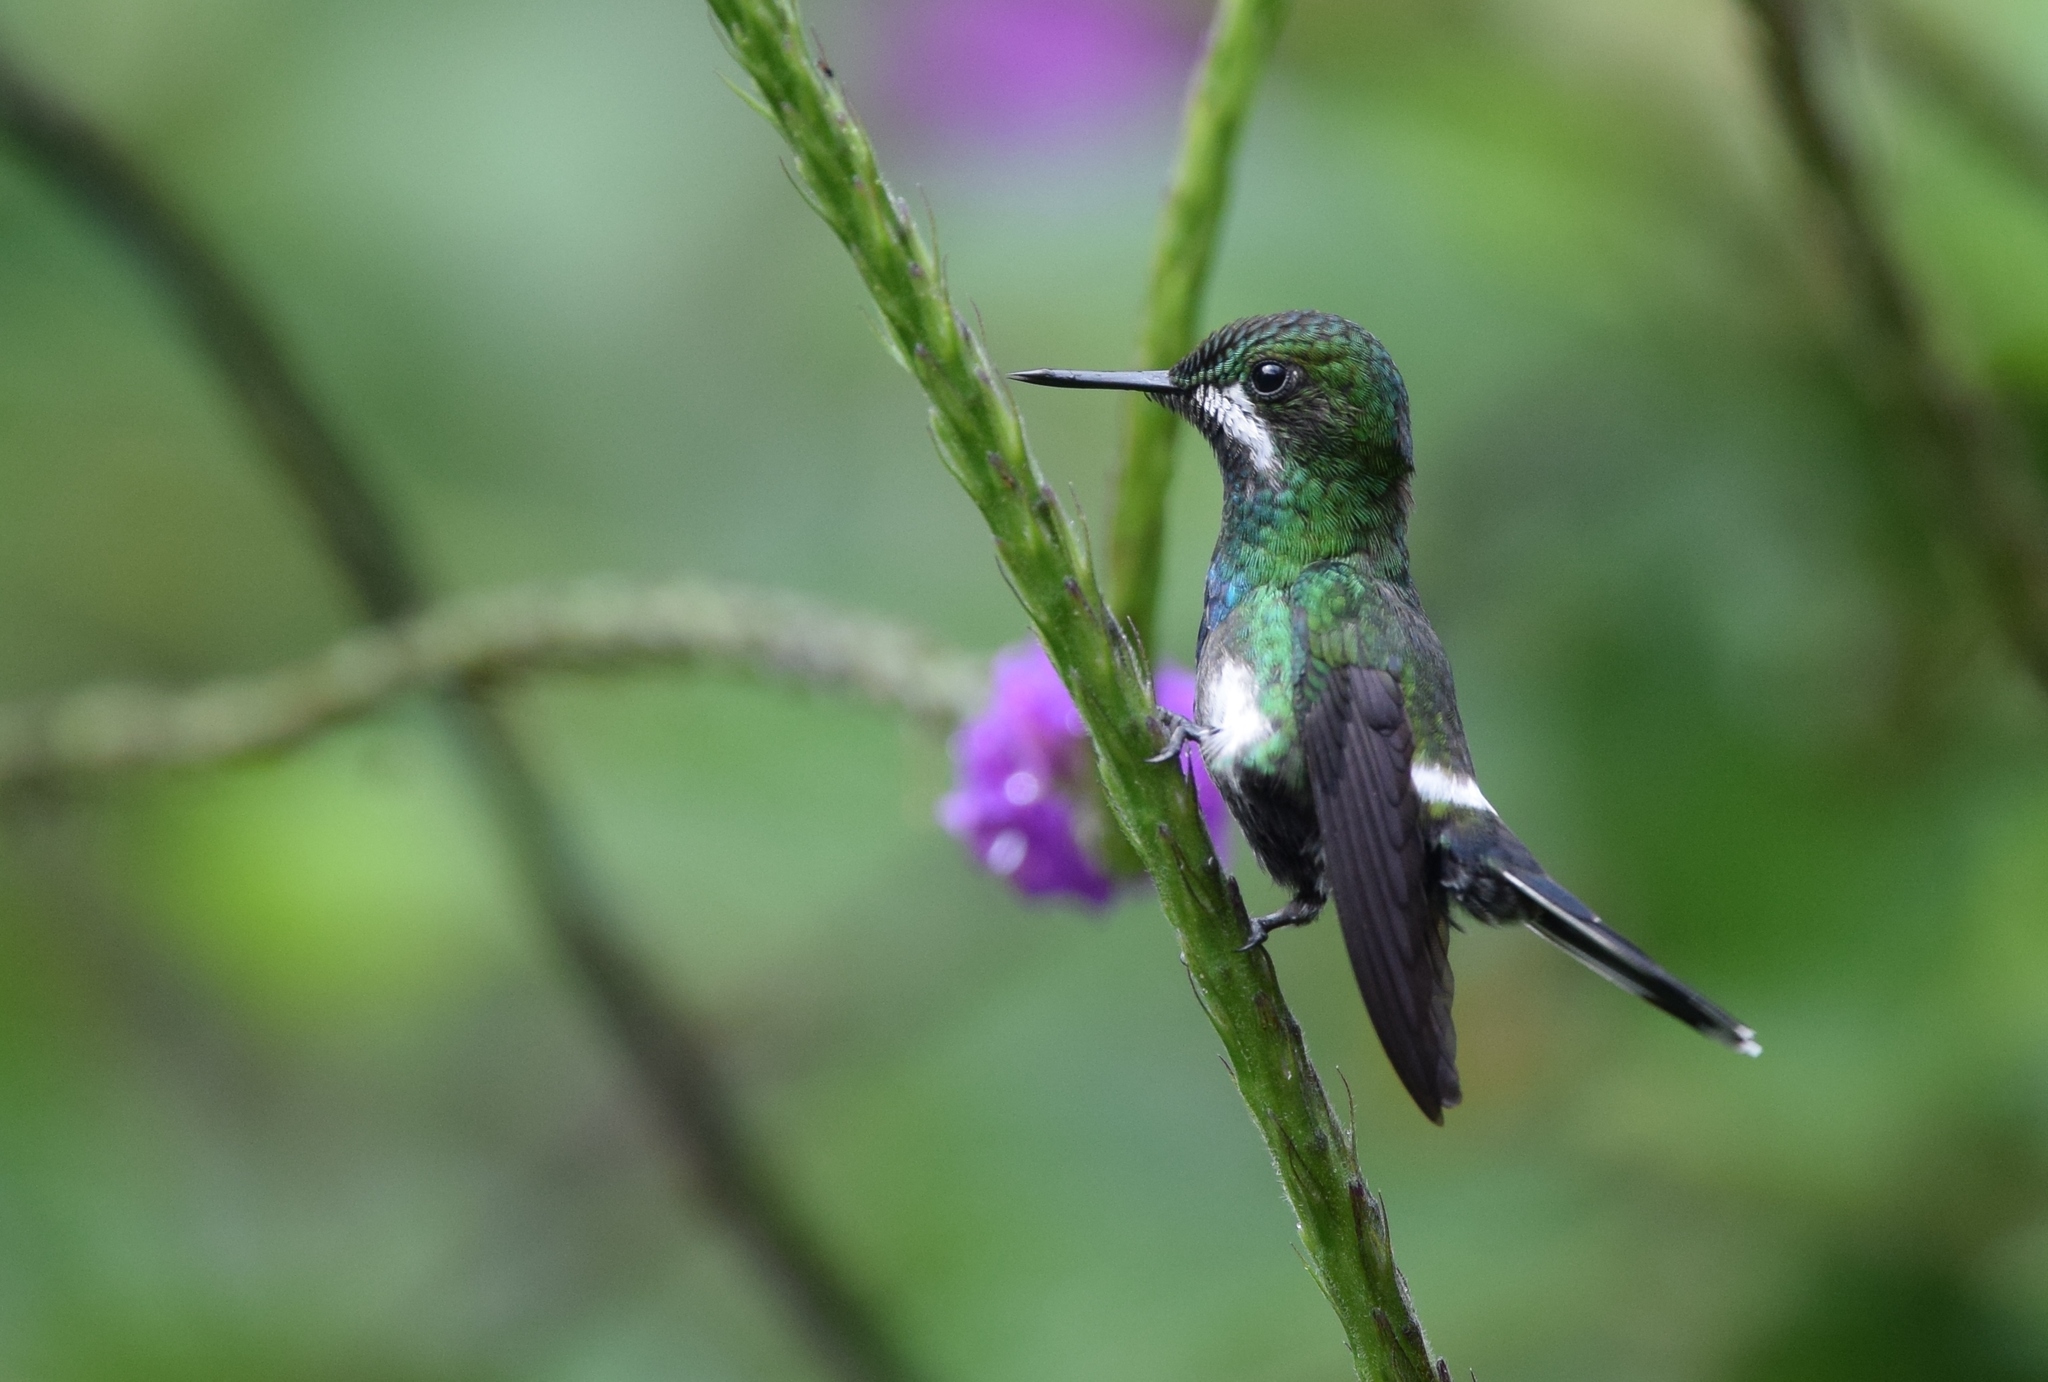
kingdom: Animalia
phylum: Chordata
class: Aves
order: Apodiformes
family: Trochilidae
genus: Discosura
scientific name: Discosura conversii
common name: Green thorntail
